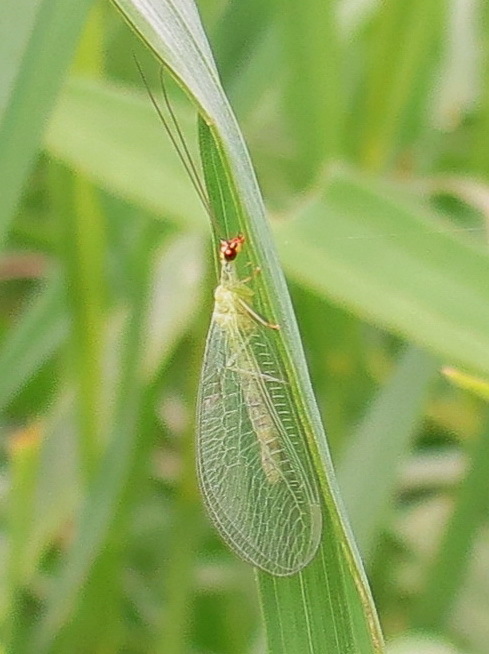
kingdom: Animalia
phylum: Arthropoda
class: Insecta
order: Neuroptera
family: Chrysopidae
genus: Chrysopa
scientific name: Chrysopa oculata
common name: Golden-eyed lacewing
